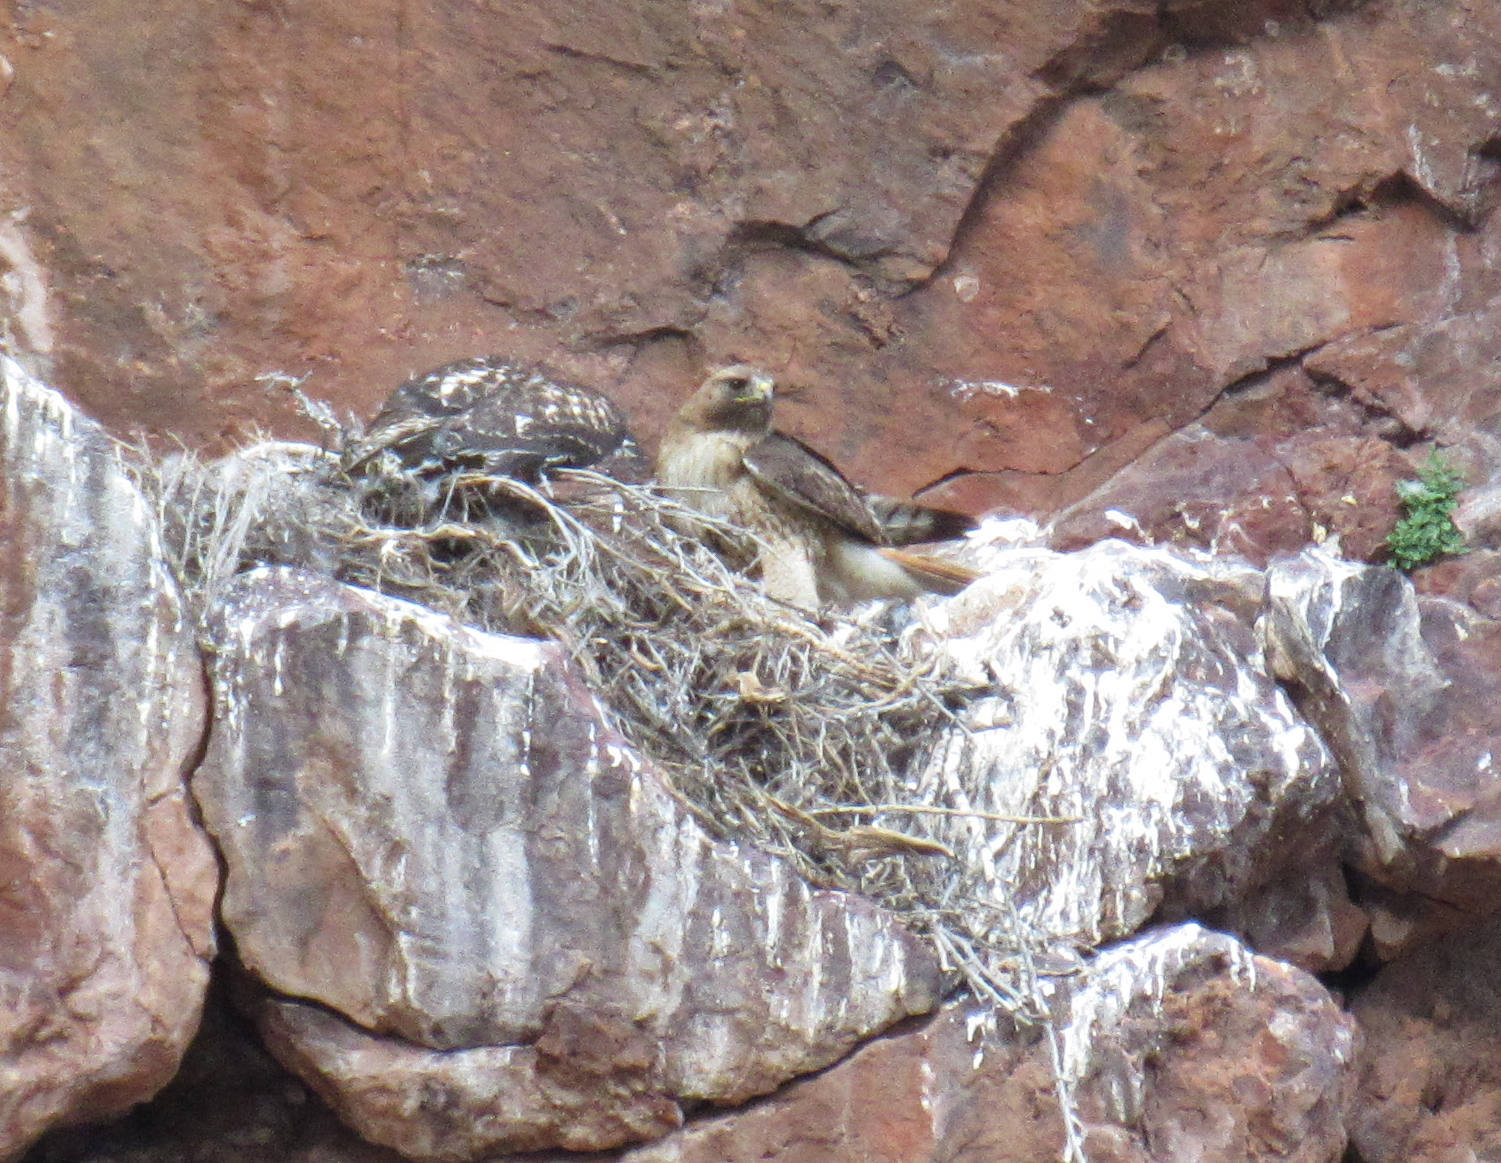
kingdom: Animalia
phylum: Chordata
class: Aves
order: Accipitriformes
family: Accipitridae
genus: Buteo
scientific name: Buteo jamaicensis
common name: Red-tailed hawk
